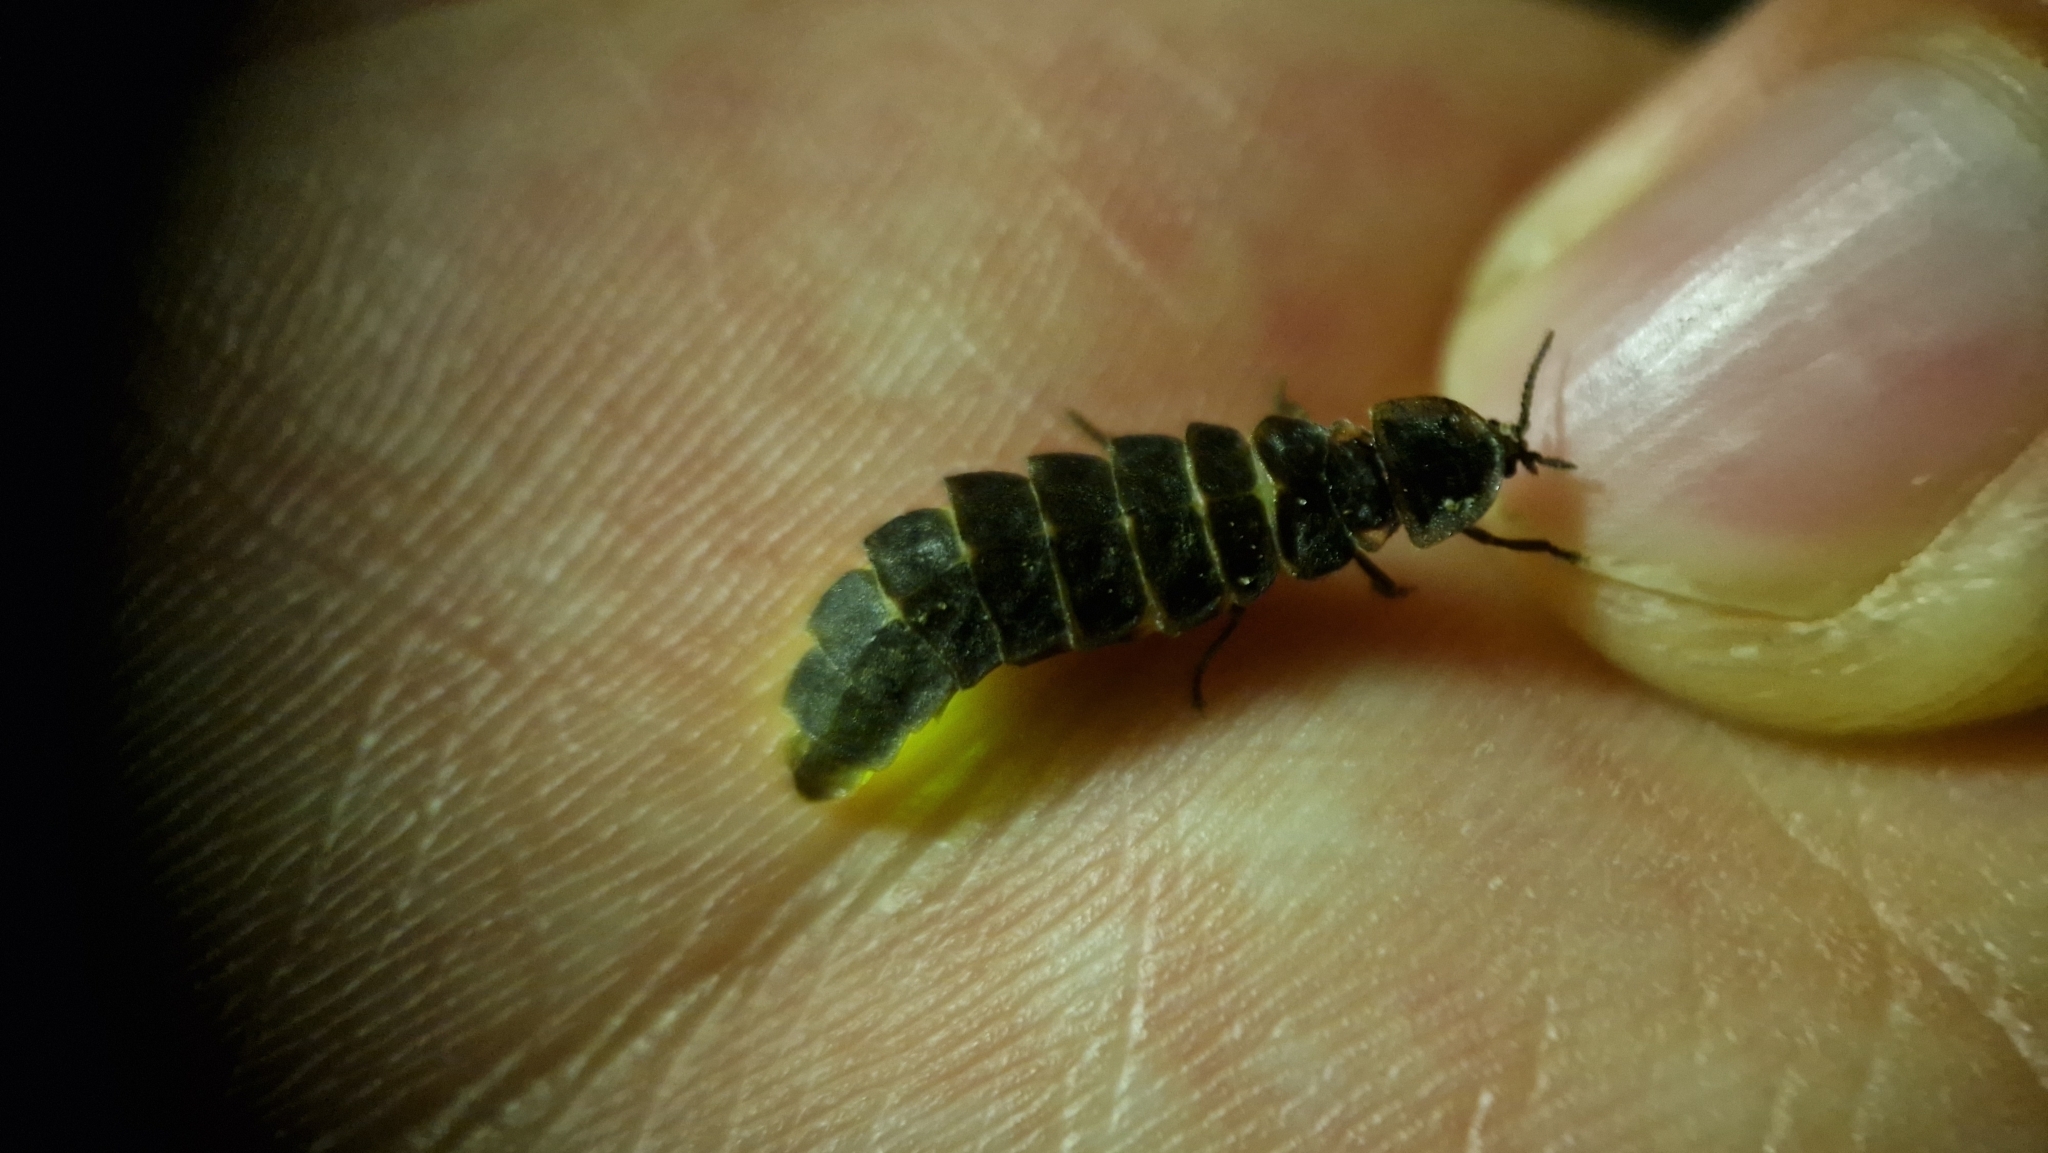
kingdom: Animalia
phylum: Arthropoda
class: Insecta
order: Coleoptera
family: Lampyridae
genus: Lampyris
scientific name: Lampyris noctiluca
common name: Glow-worm
